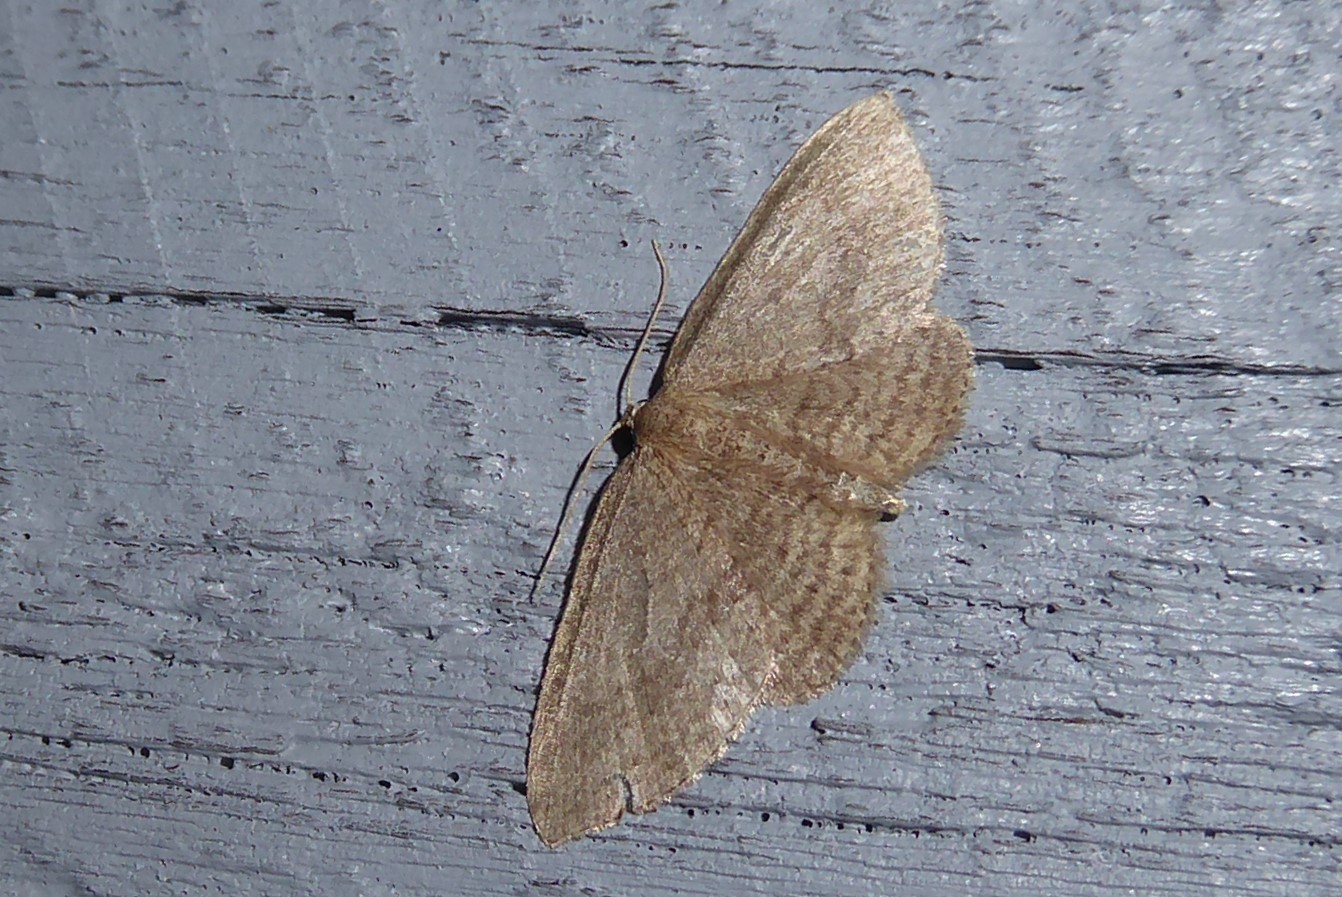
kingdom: Animalia
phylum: Arthropoda
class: Insecta
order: Lepidoptera
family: Geometridae
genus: Poecilasthena
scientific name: Poecilasthena schistaria
